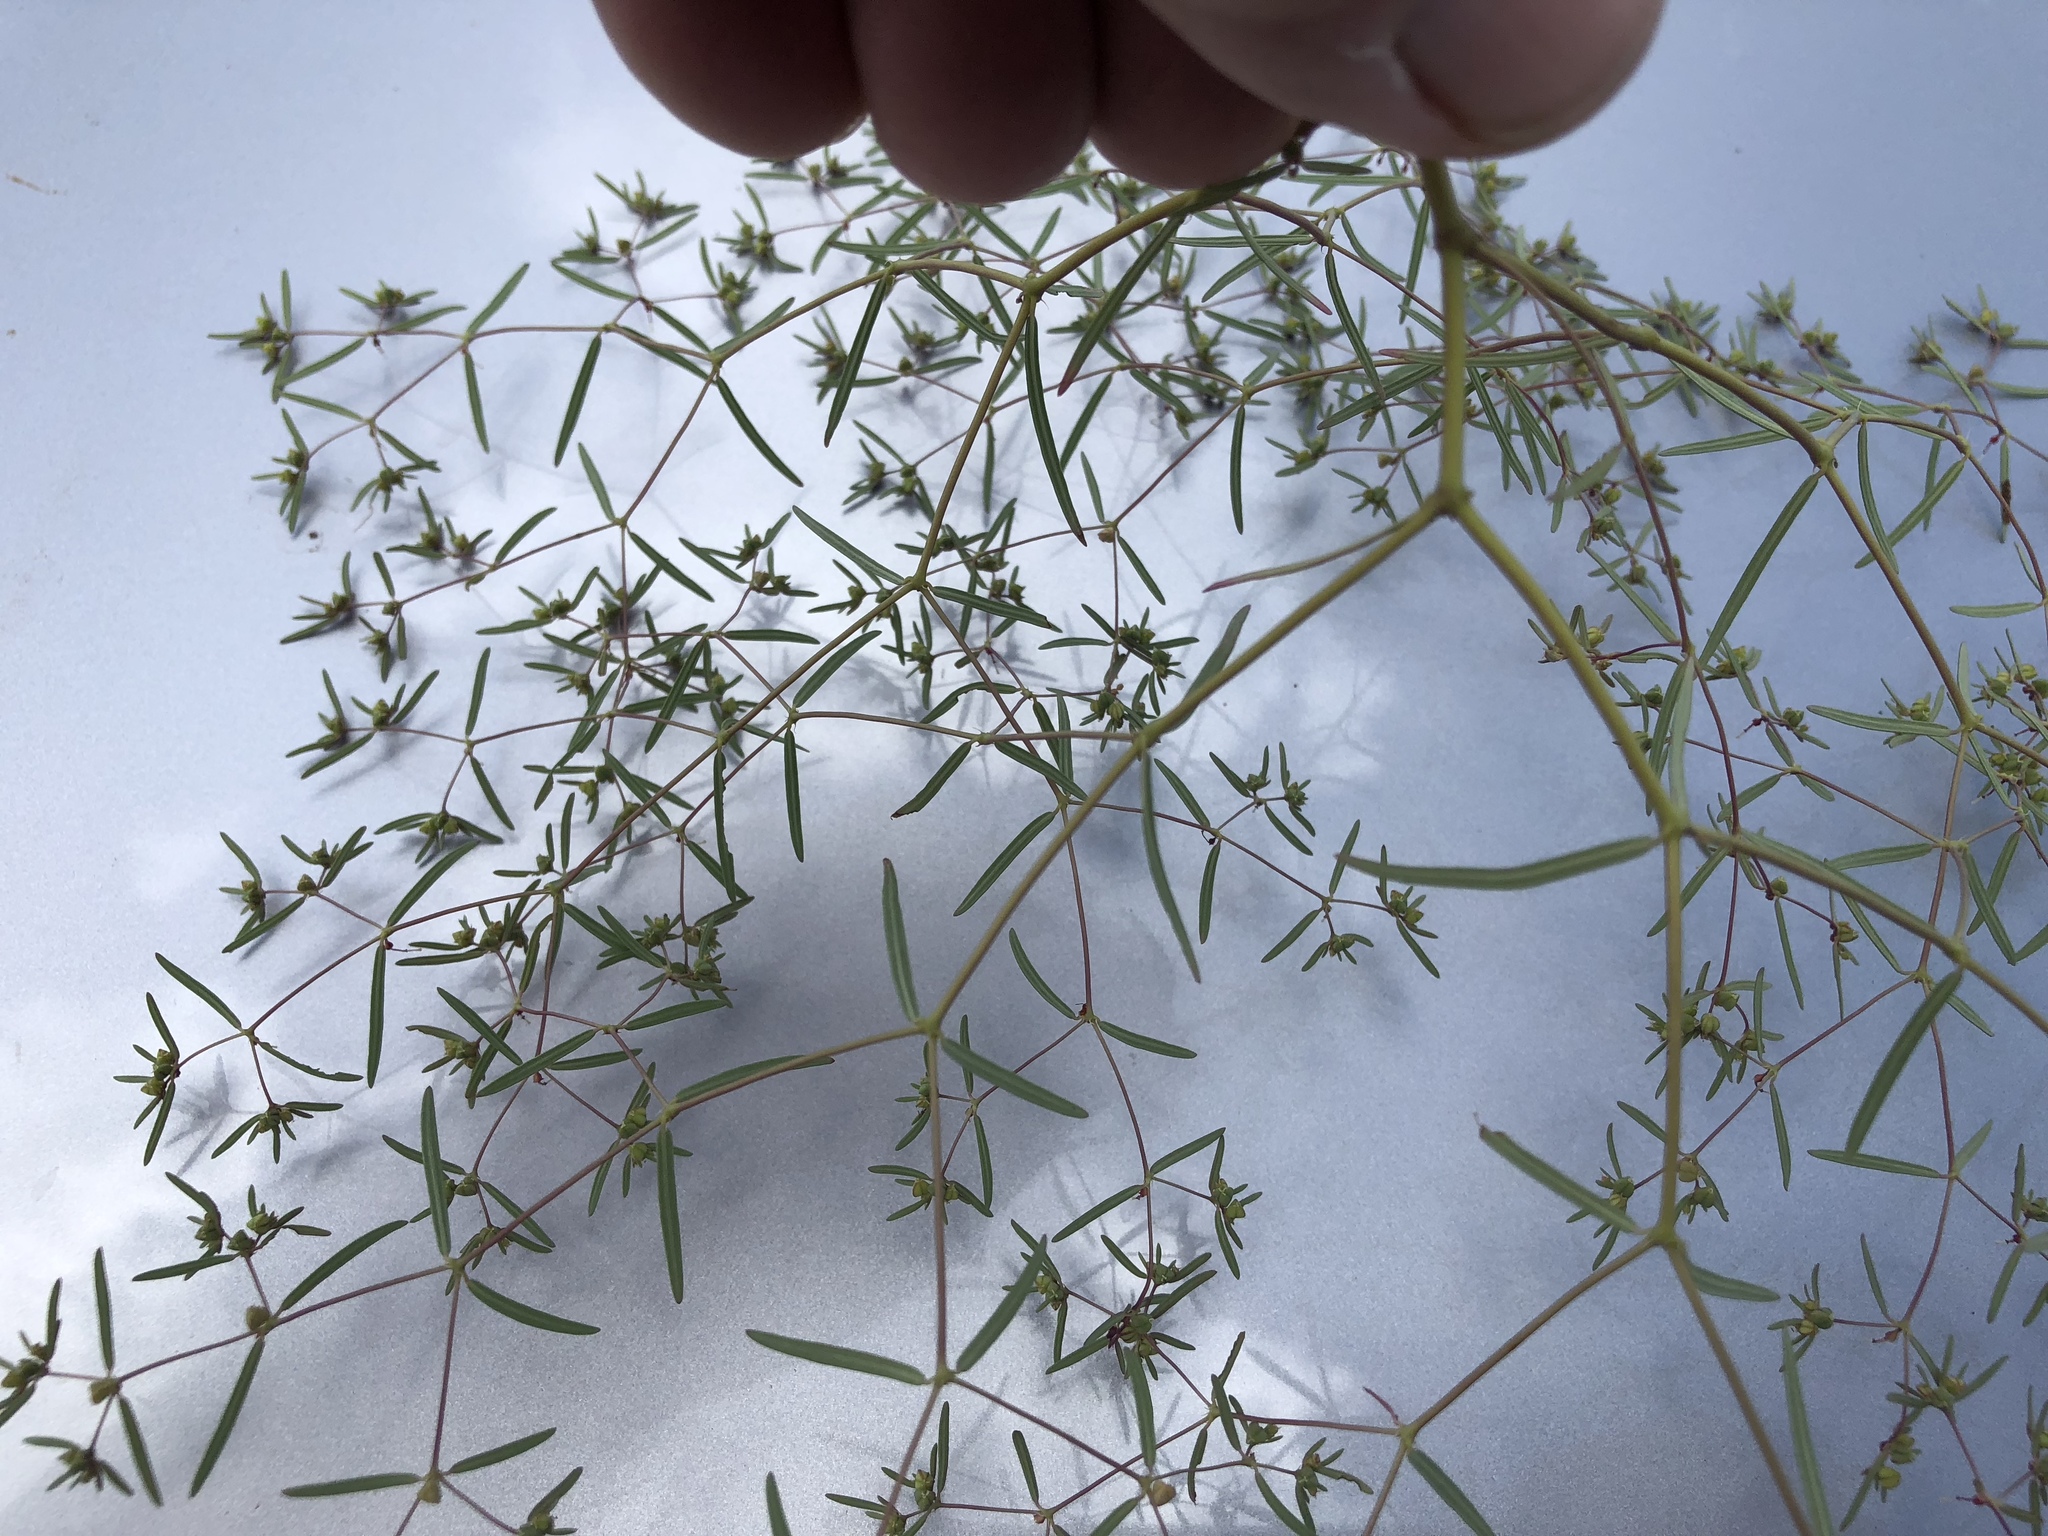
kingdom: Plantae
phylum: Tracheophyta
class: Magnoliopsida
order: Malpighiales
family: Euphorbiaceae
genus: Euphorbia
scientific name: Euphorbia revoluta
